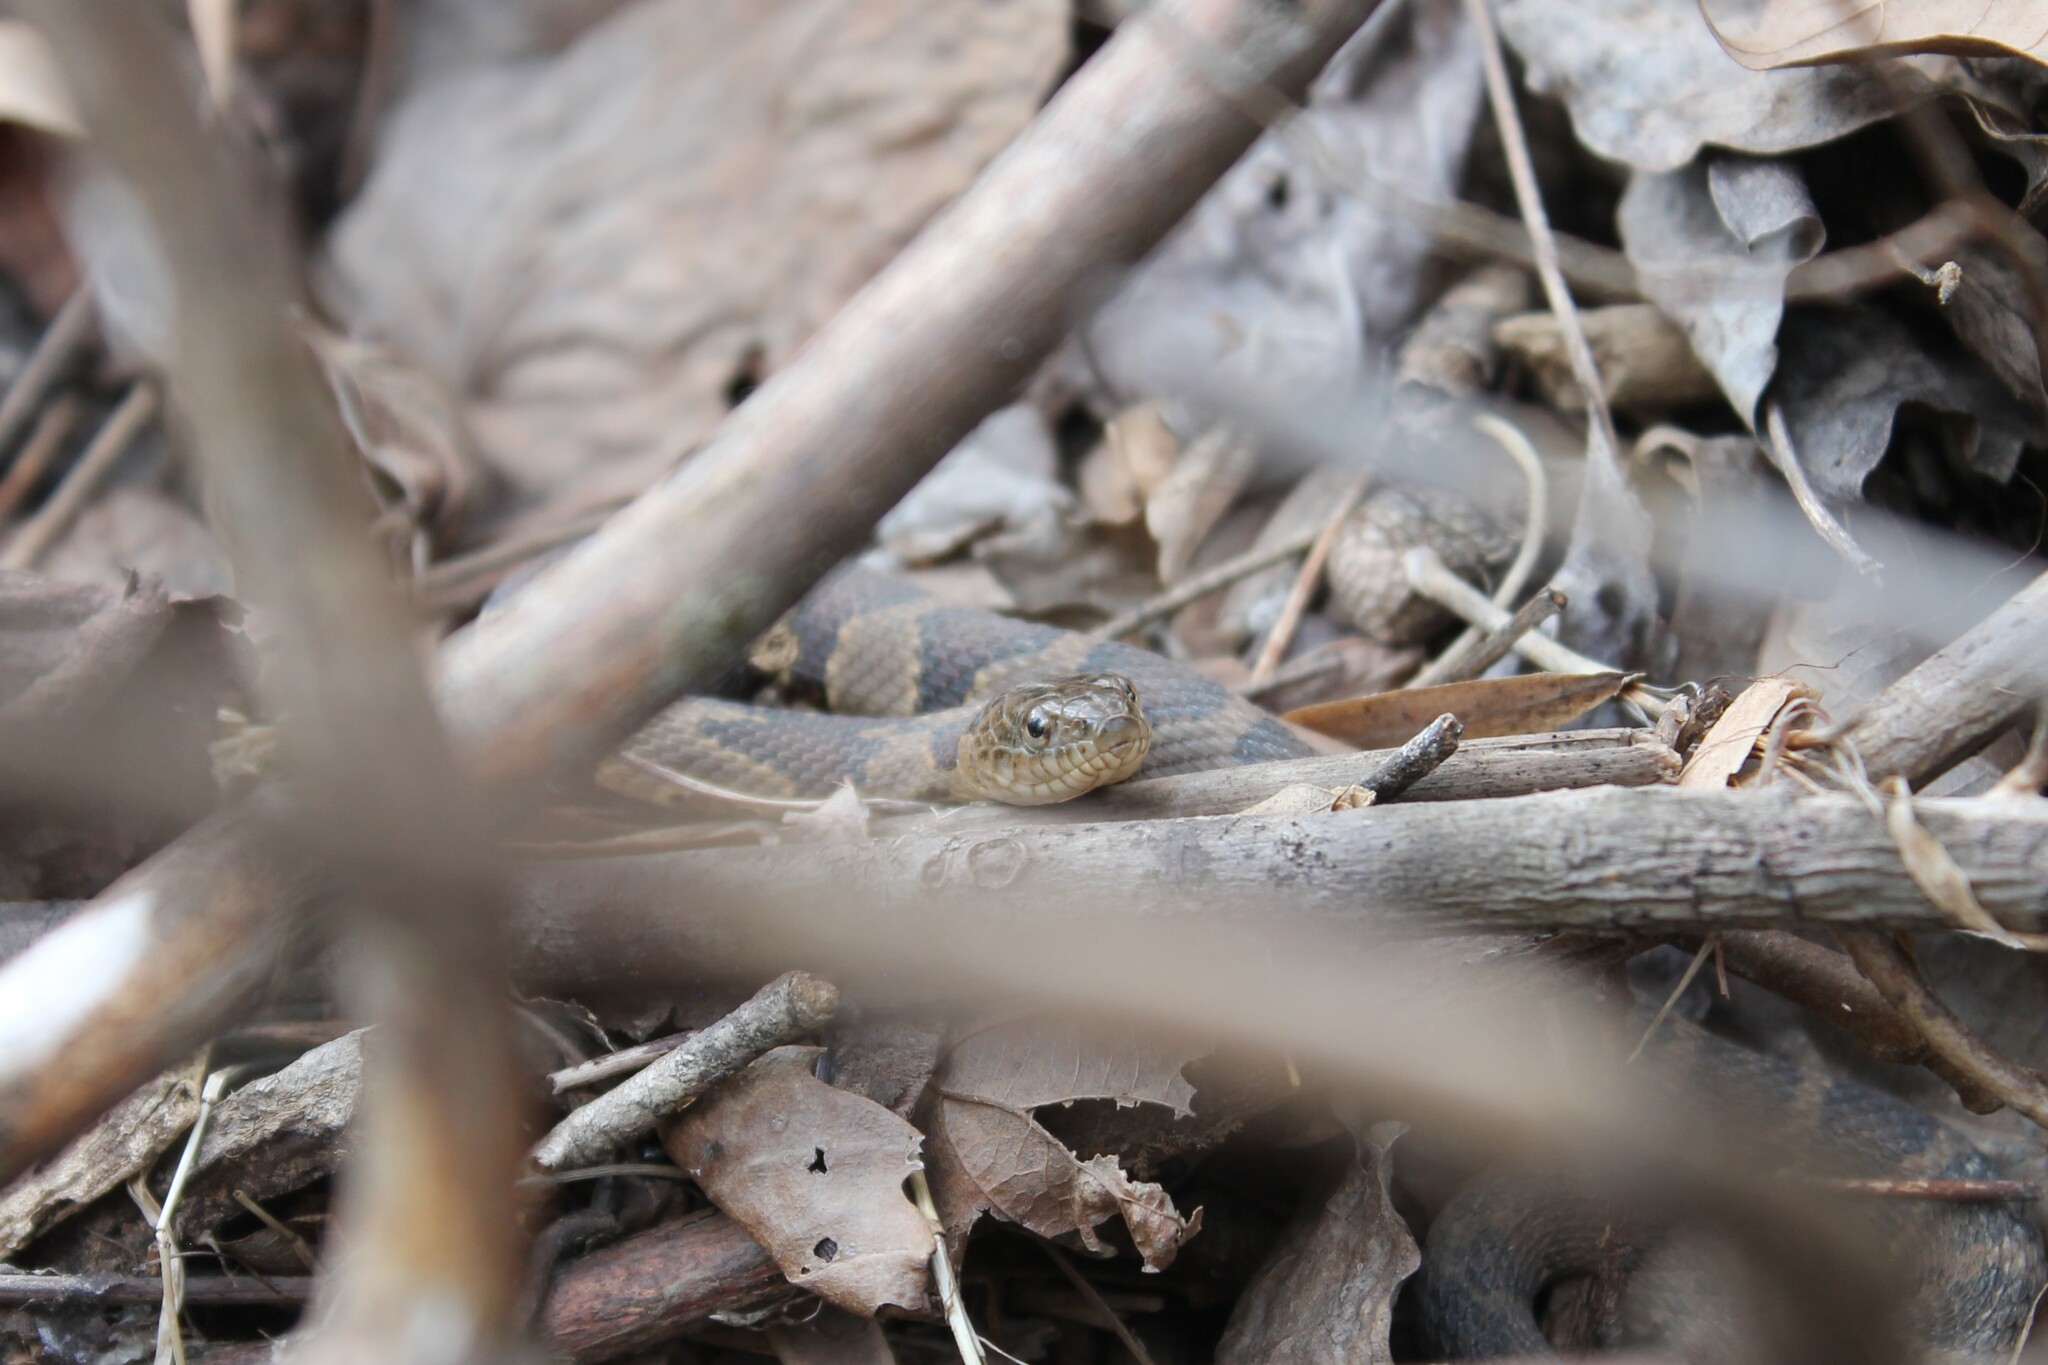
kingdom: Animalia
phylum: Chordata
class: Squamata
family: Colubridae
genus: Nerodia
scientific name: Nerodia sipedon
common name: Northern water snake
